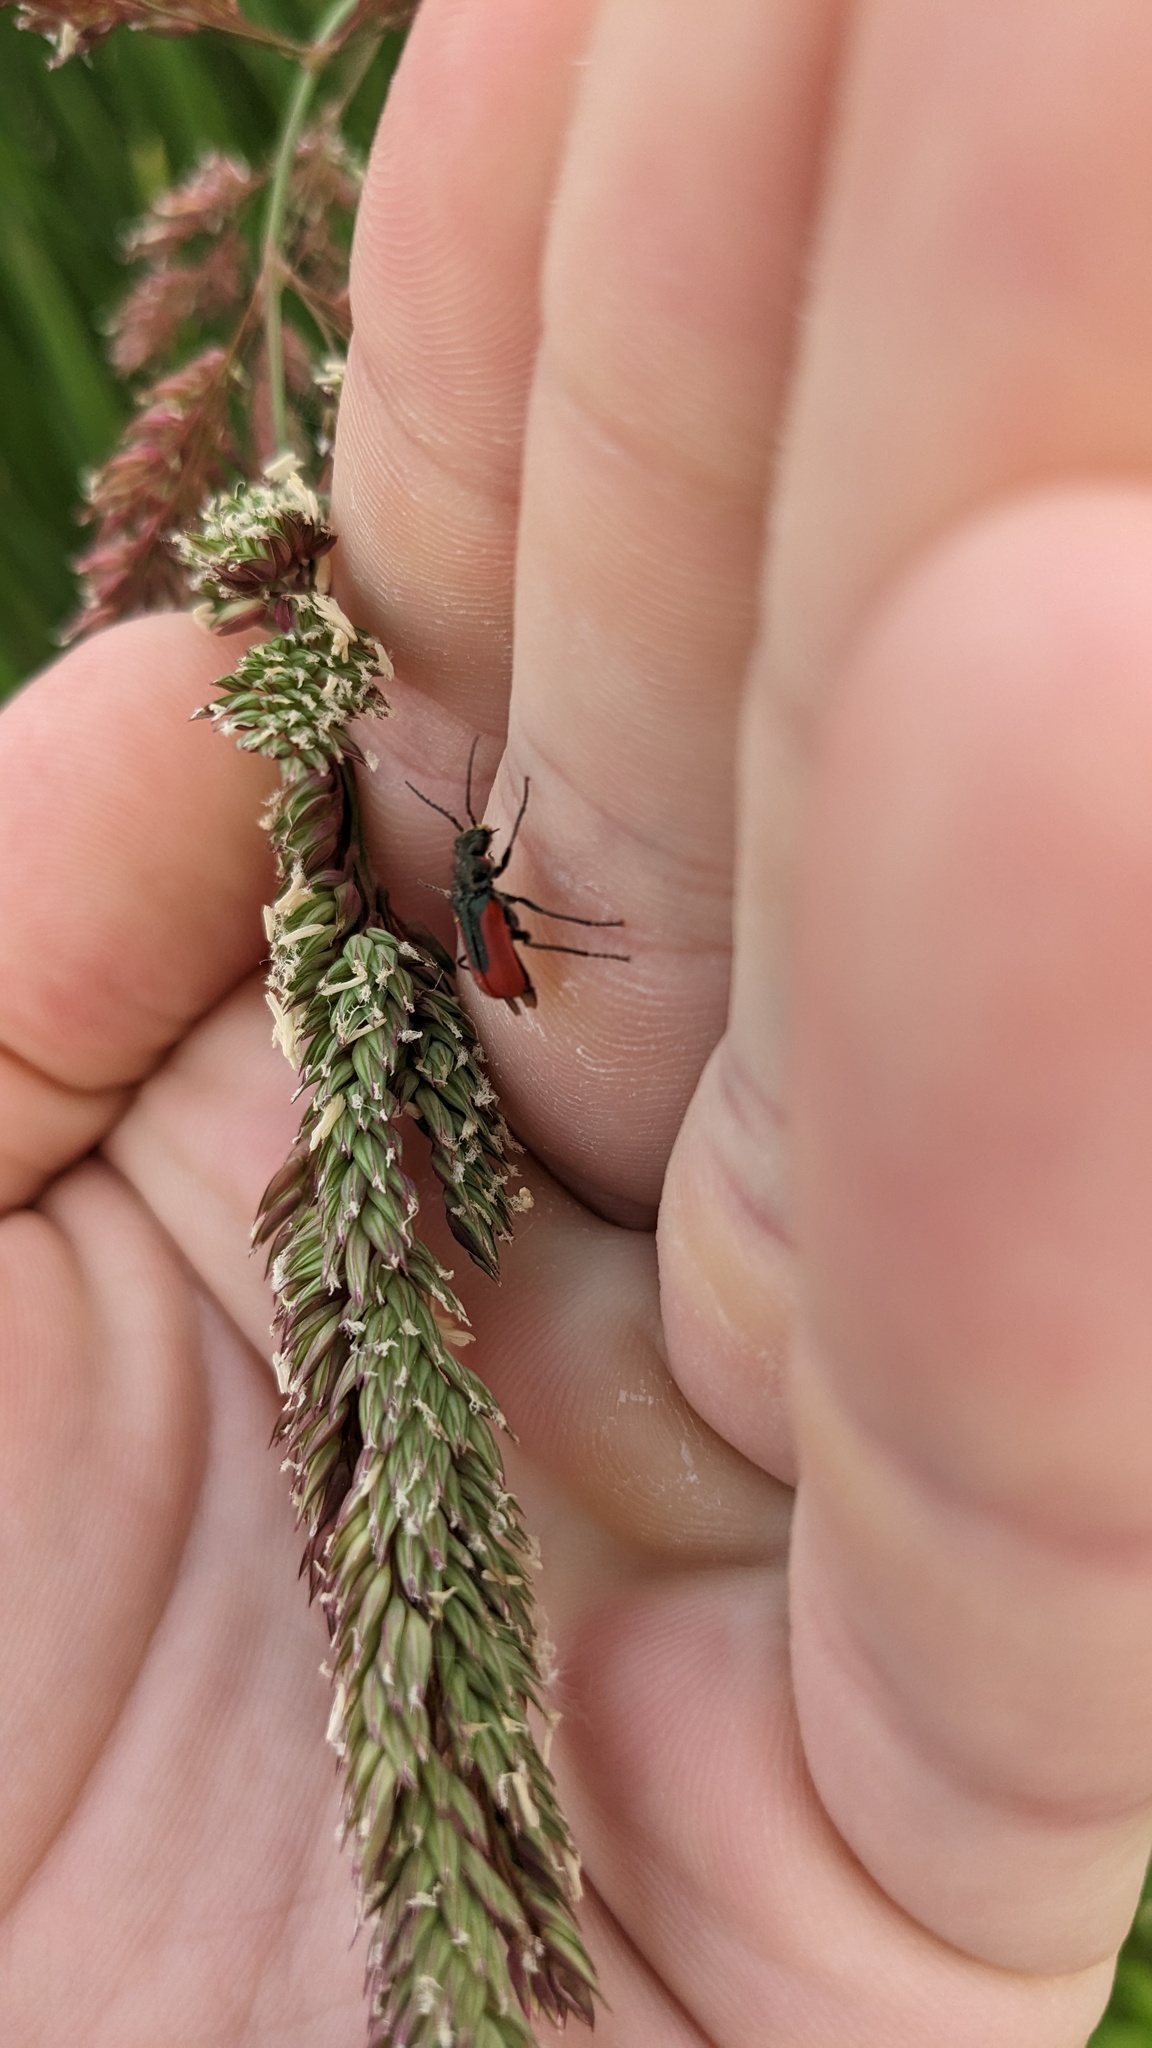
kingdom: Animalia
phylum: Arthropoda
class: Insecta
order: Coleoptera
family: Melyridae
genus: Malachius
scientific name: Malachius aeneus
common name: Scarlet malachite beetle
